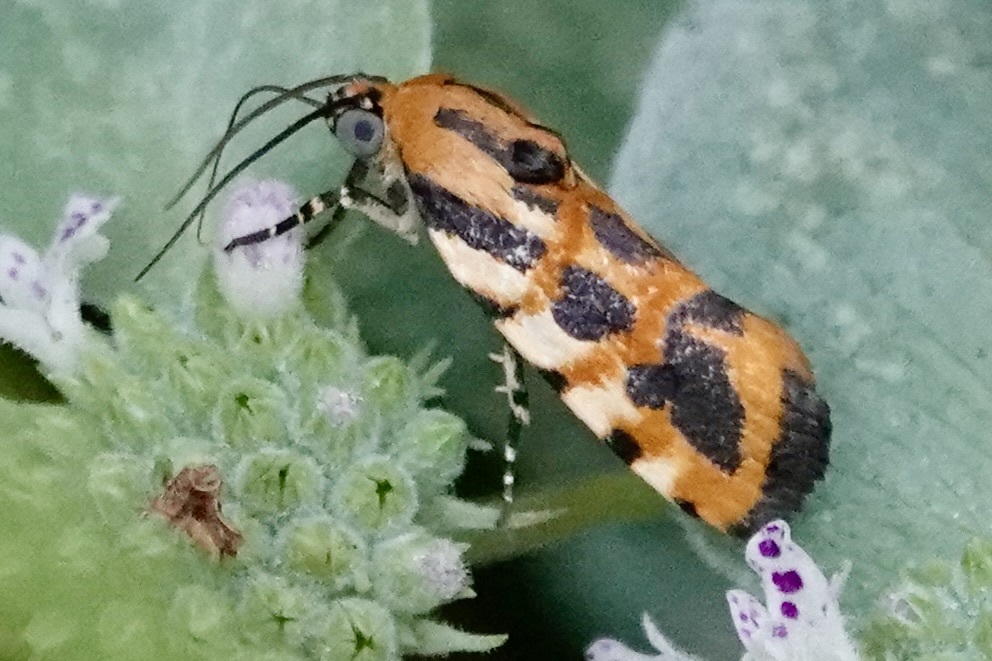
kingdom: Animalia
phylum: Arthropoda
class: Insecta
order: Lepidoptera
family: Noctuidae
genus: Acontia
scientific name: Acontia leo
